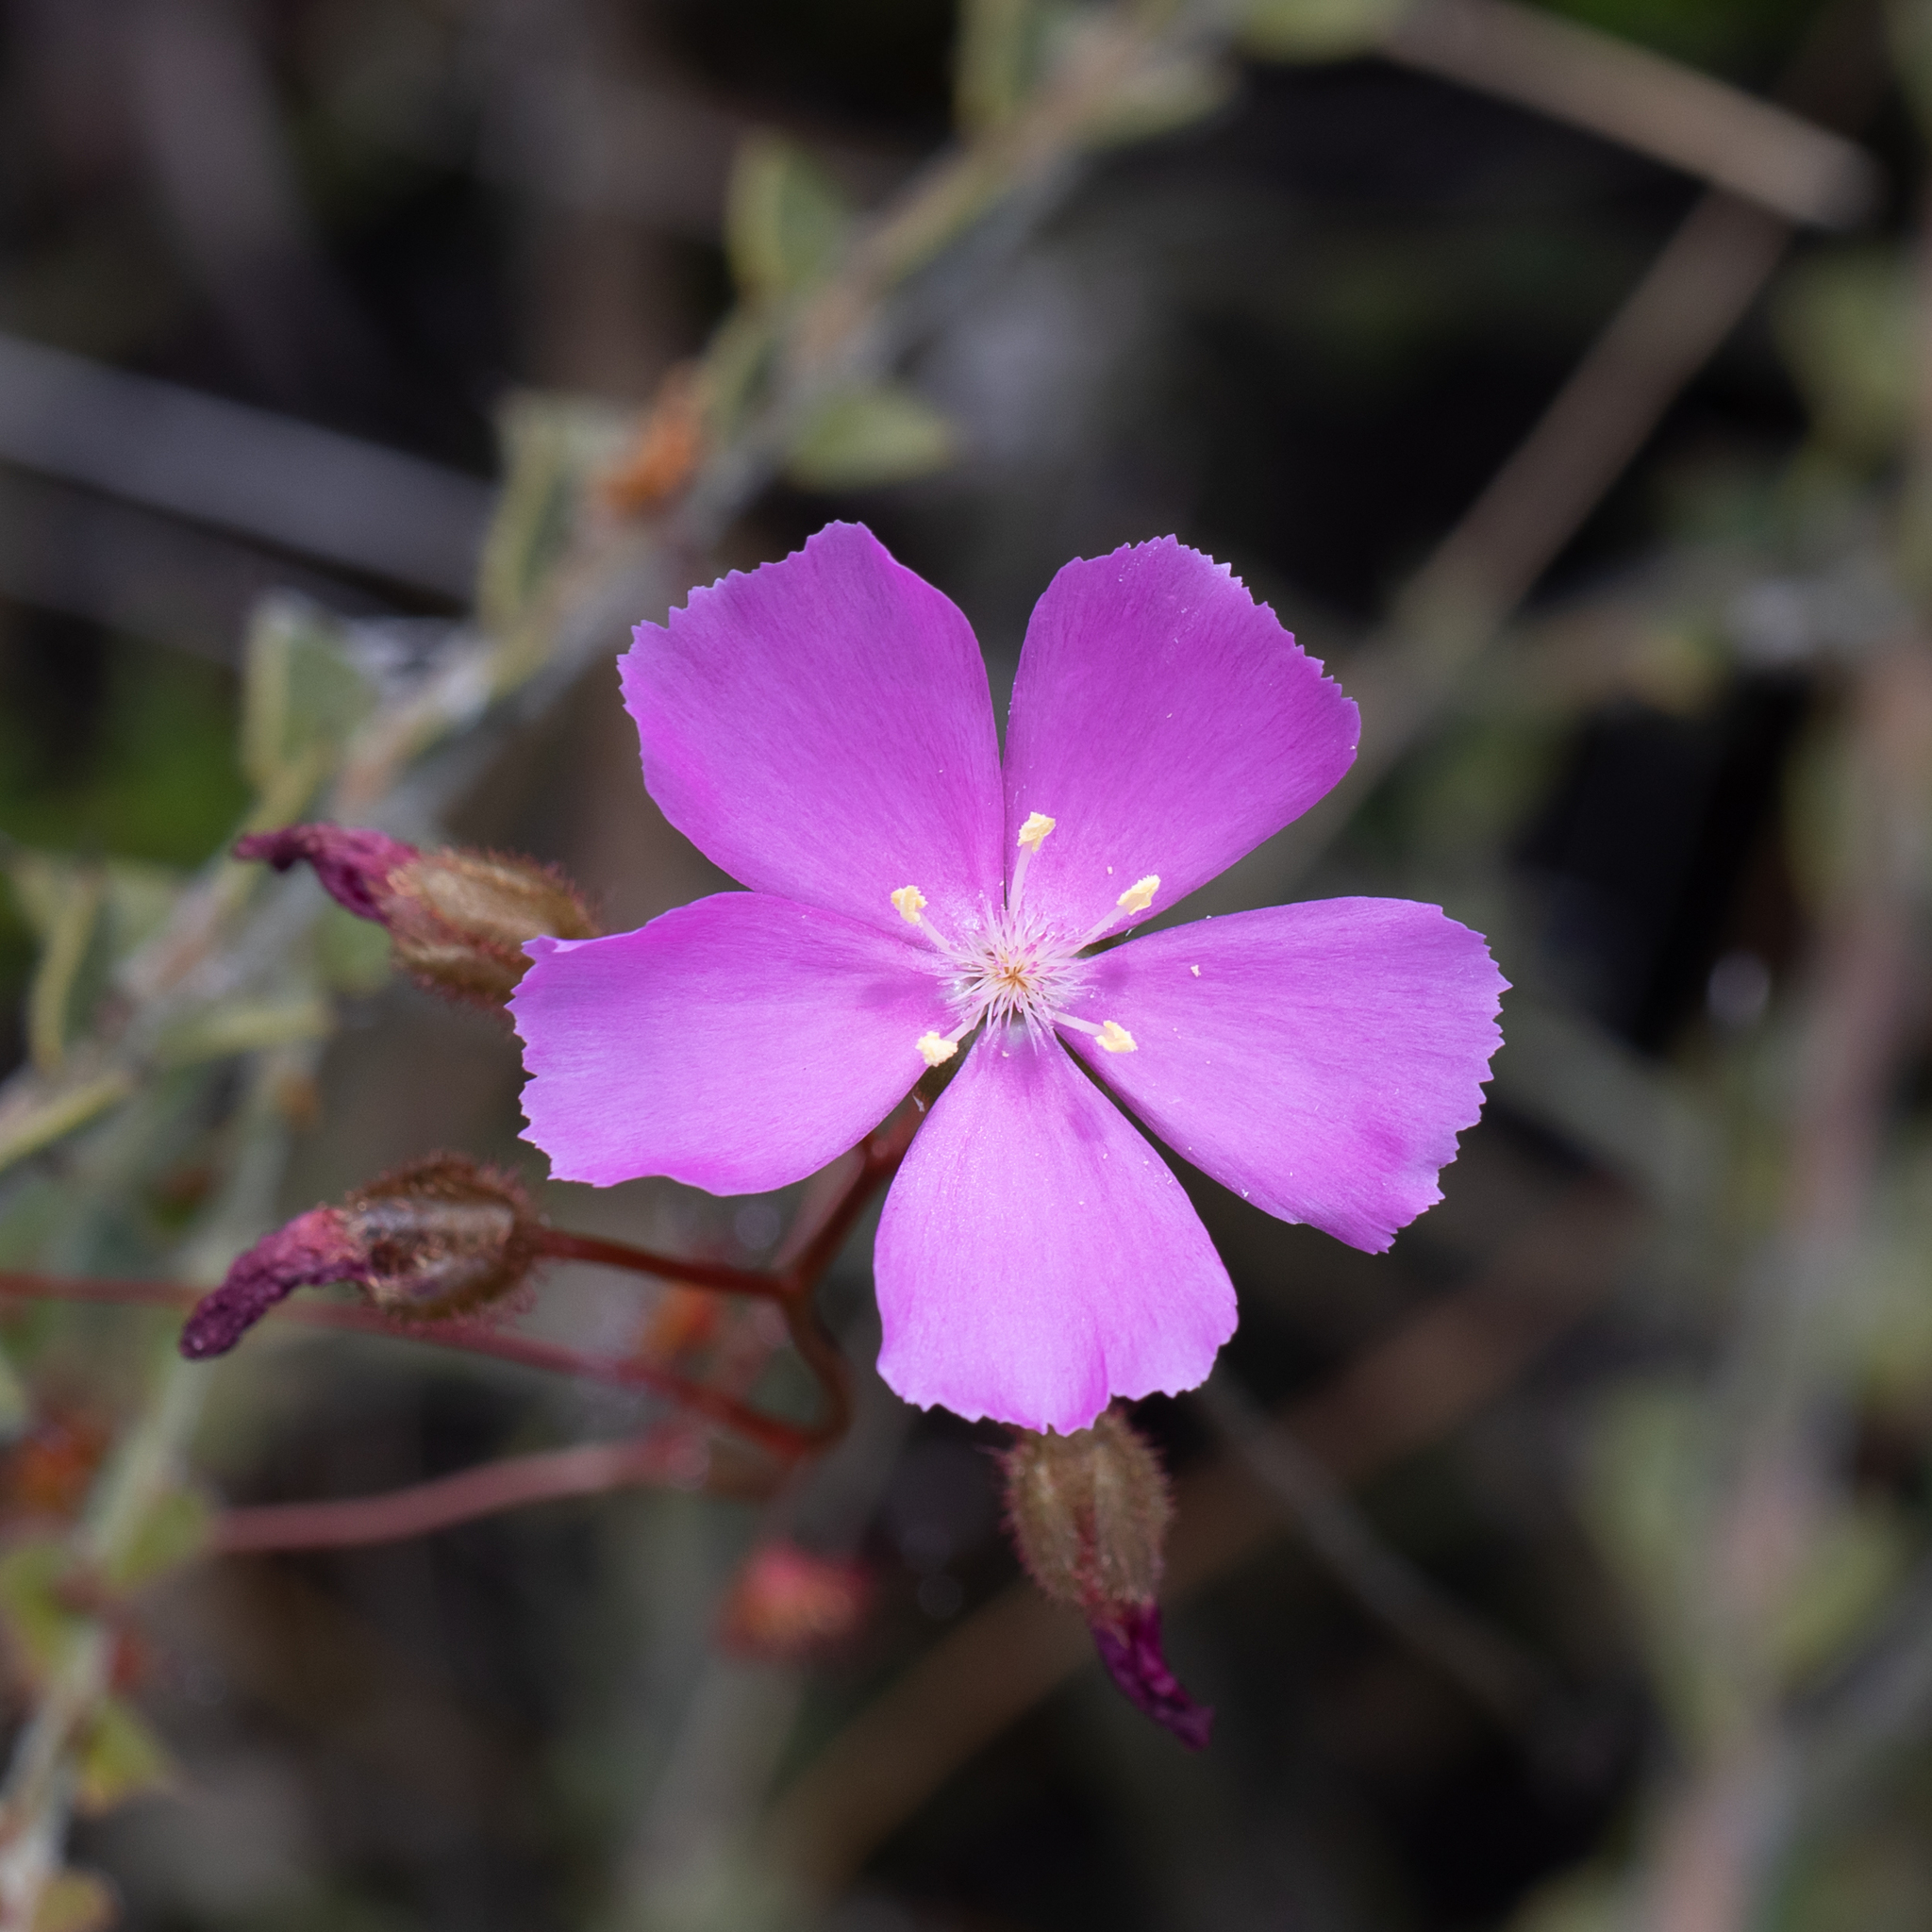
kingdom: Plantae
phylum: Tracheophyta
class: Magnoliopsida
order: Caryophyllales
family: Droseraceae
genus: Drosera
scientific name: Drosera
